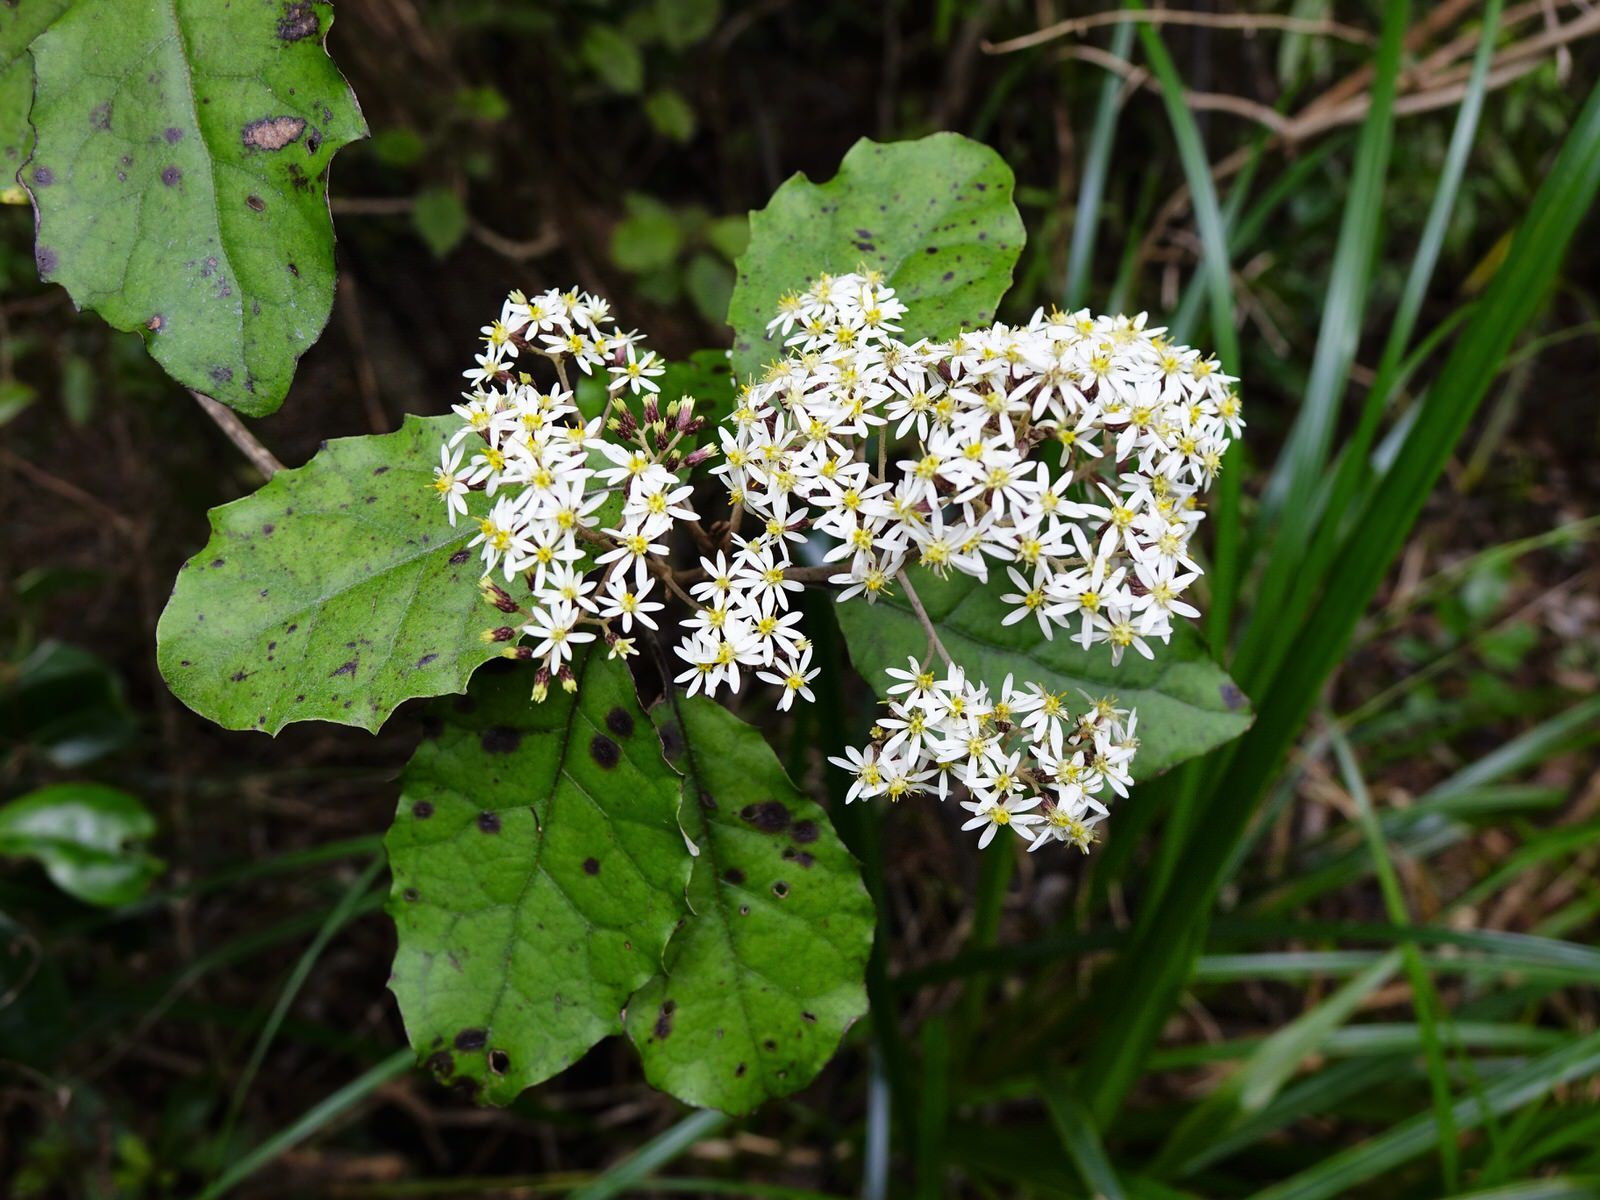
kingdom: Plantae
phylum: Tracheophyta
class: Magnoliopsida
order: Asterales
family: Asteraceae
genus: Olearia
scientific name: Olearia rani
